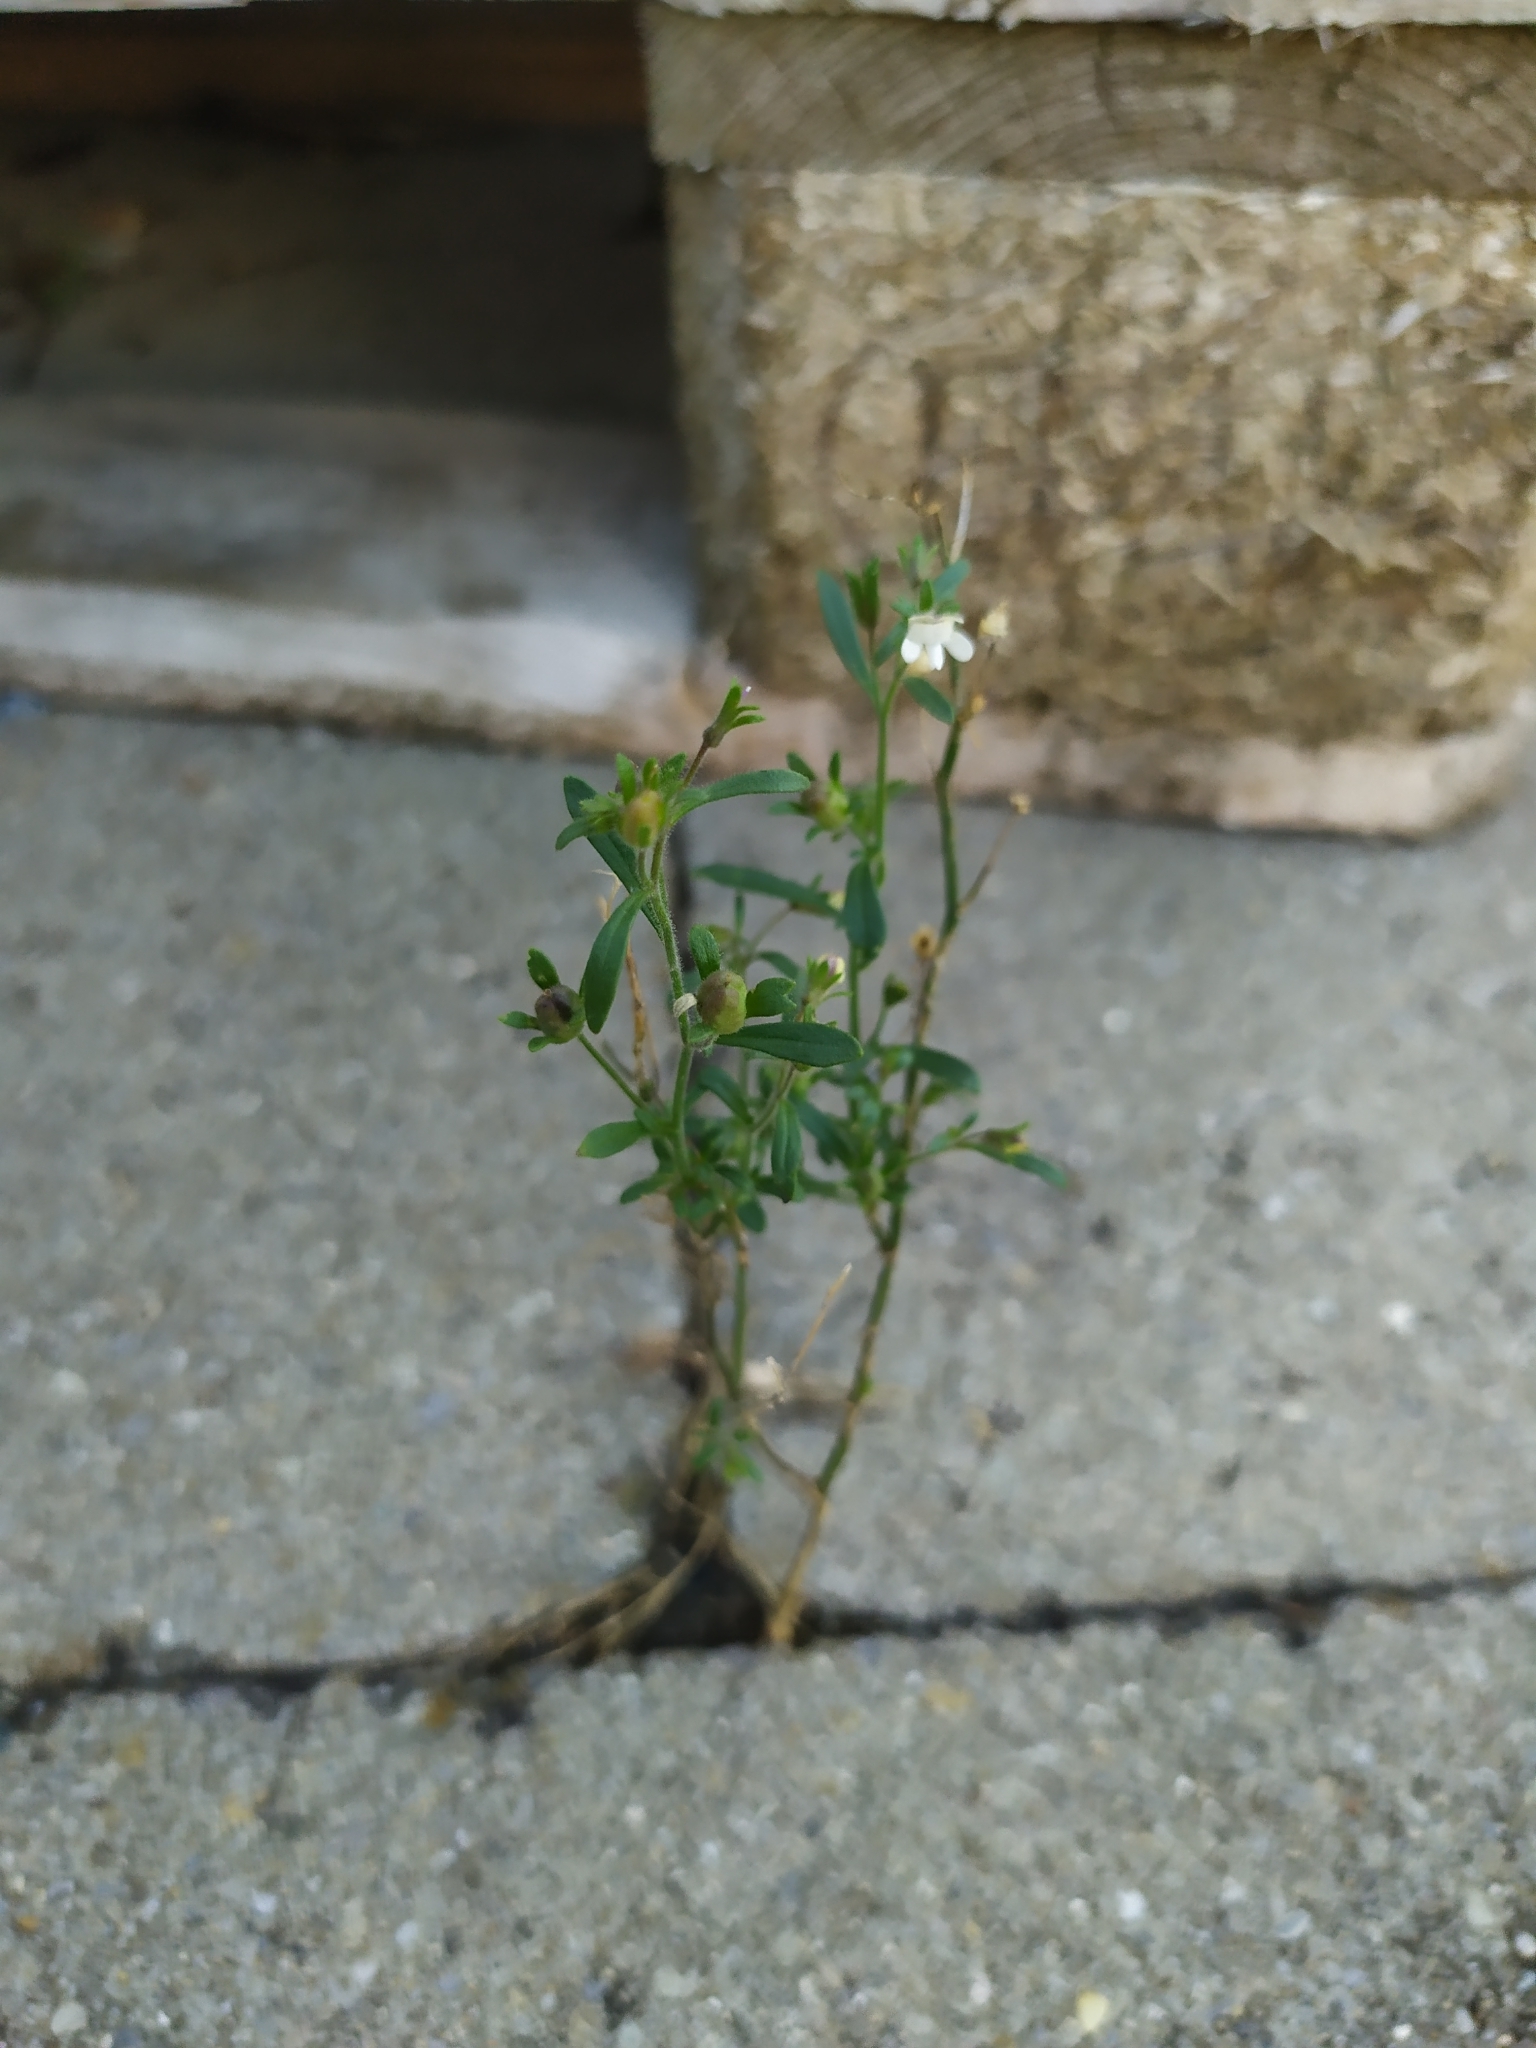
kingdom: Plantae
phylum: Tracheophyta
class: Magnoliopsida
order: Lamiales
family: Plantaginaceae
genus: Chaenorhinum
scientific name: Chaenorhinum minus
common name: Dwarf snapdragon
